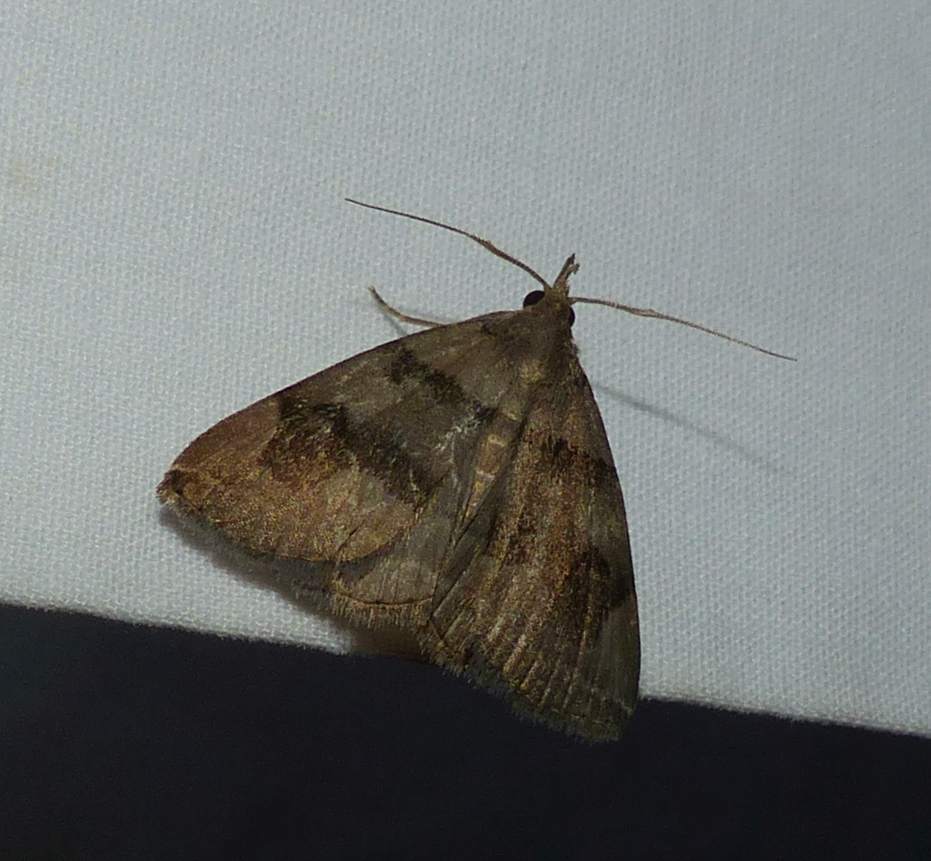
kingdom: Animalia
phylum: Arthropoda
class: Insecta
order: Lepidoptera
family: Erebidae
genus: Zanclognatha
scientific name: Zanclognatha laevigata
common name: Variable fan-foot
